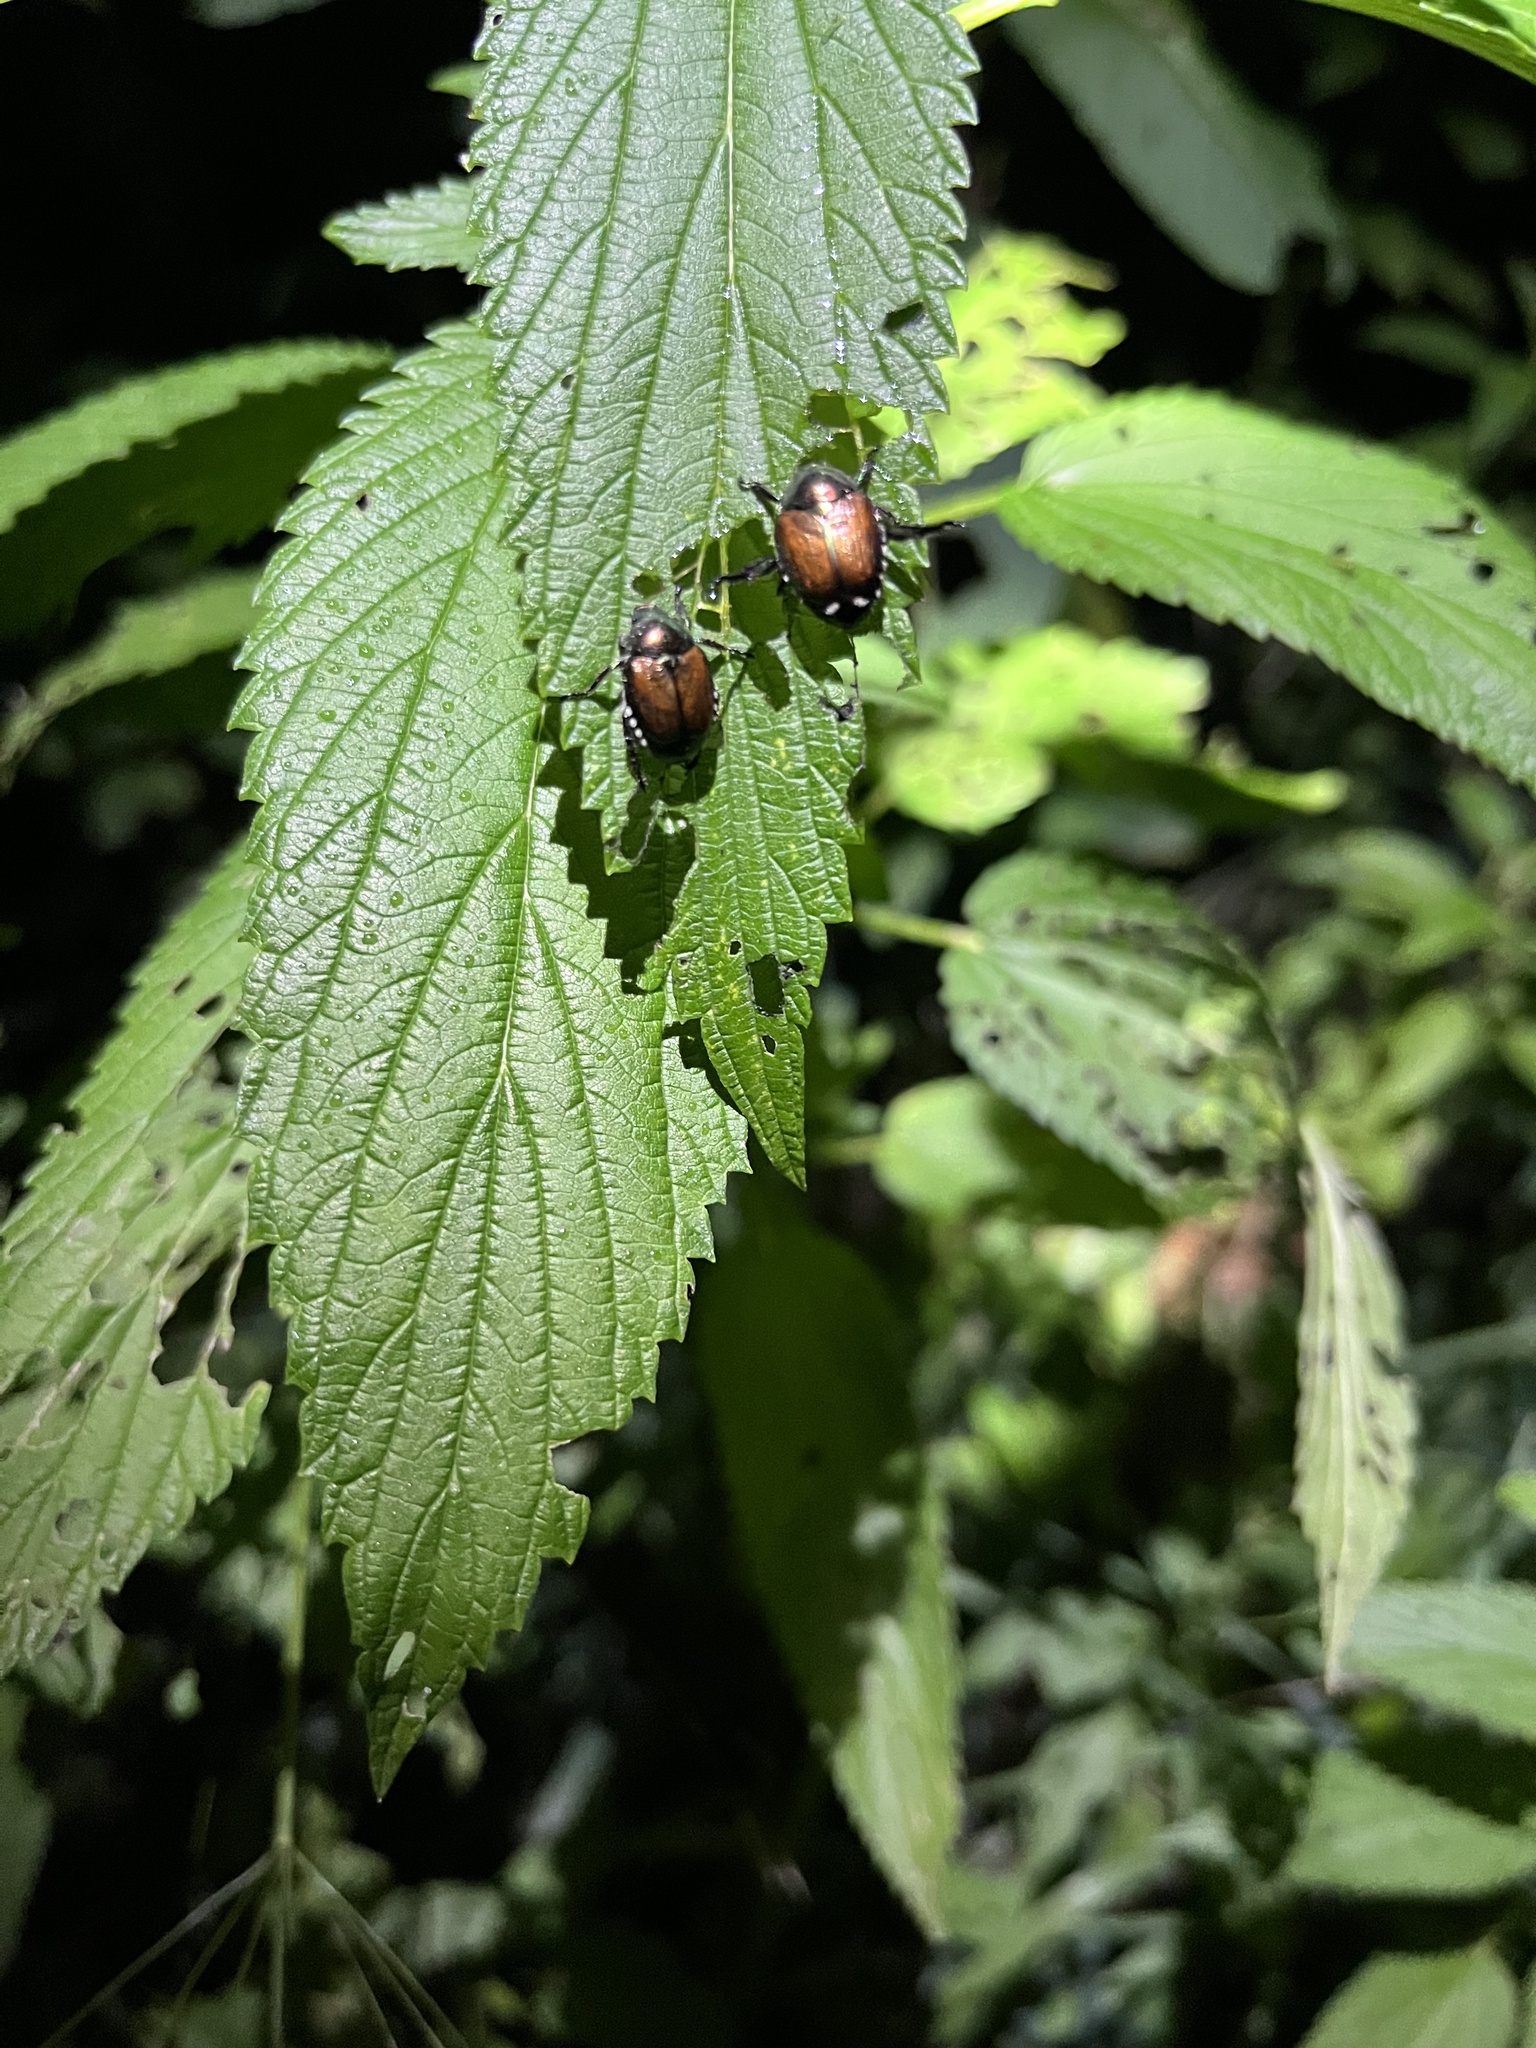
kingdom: Animalia
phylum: Arthropoda
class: Insecta
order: Coleoptera
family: Scarabaeidae
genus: Popillia
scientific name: Popillia japonica
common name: Japanese beetle
